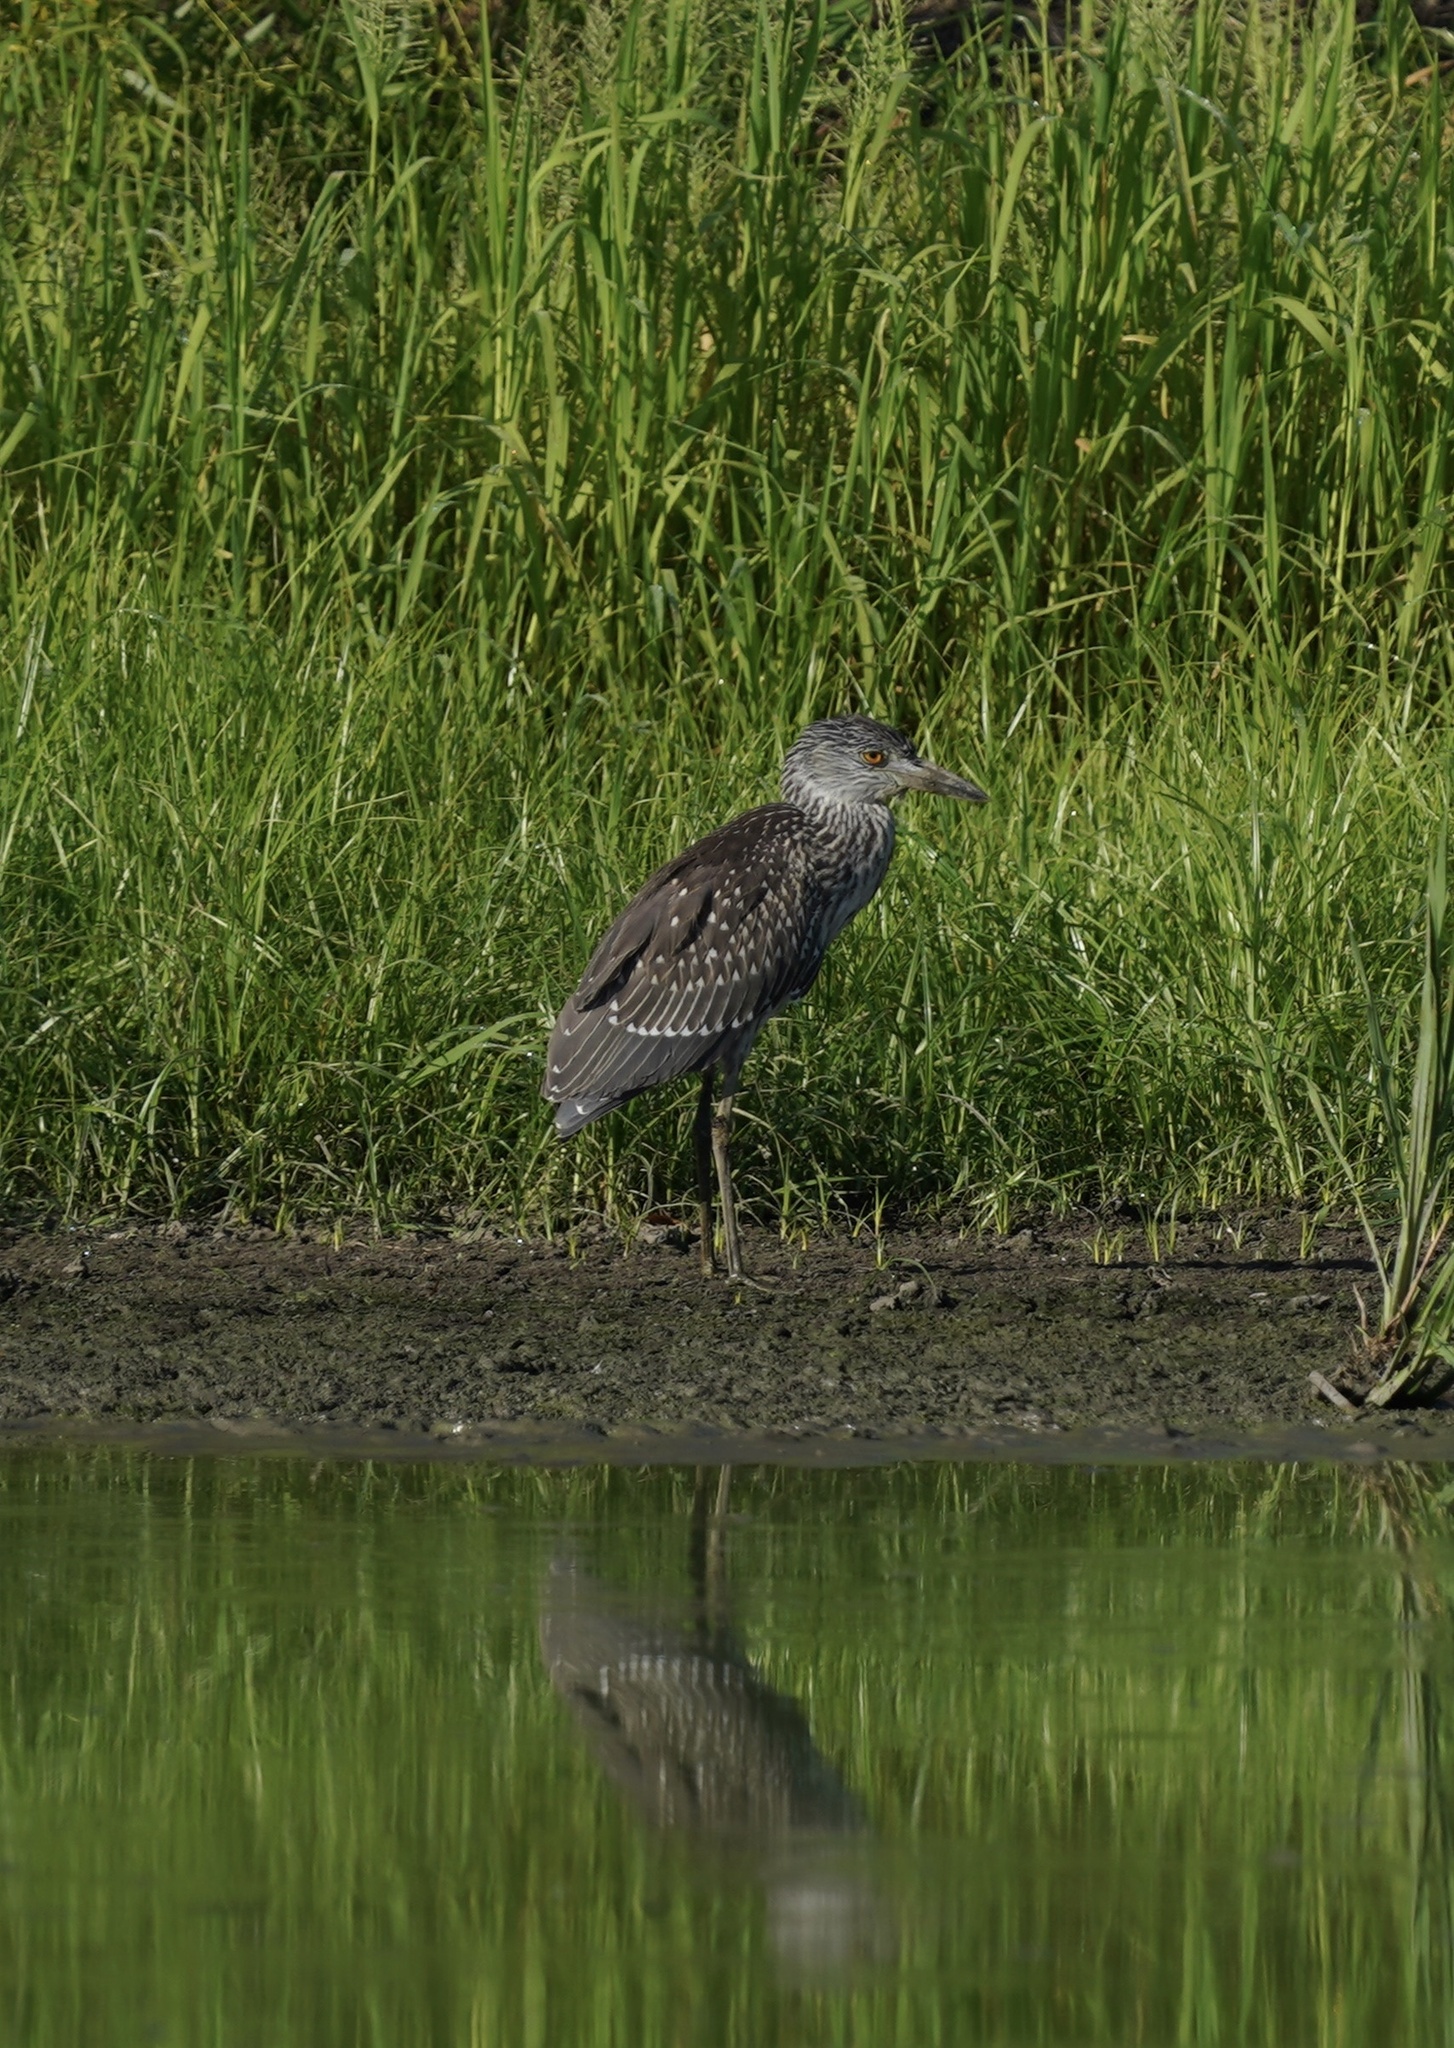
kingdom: Animalia
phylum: Chordata
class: Aves
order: Pelecaniformes
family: Ardeidae
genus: Nyctanassa
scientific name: Nyctanassa violacea
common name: Yellow-crowned night heron
